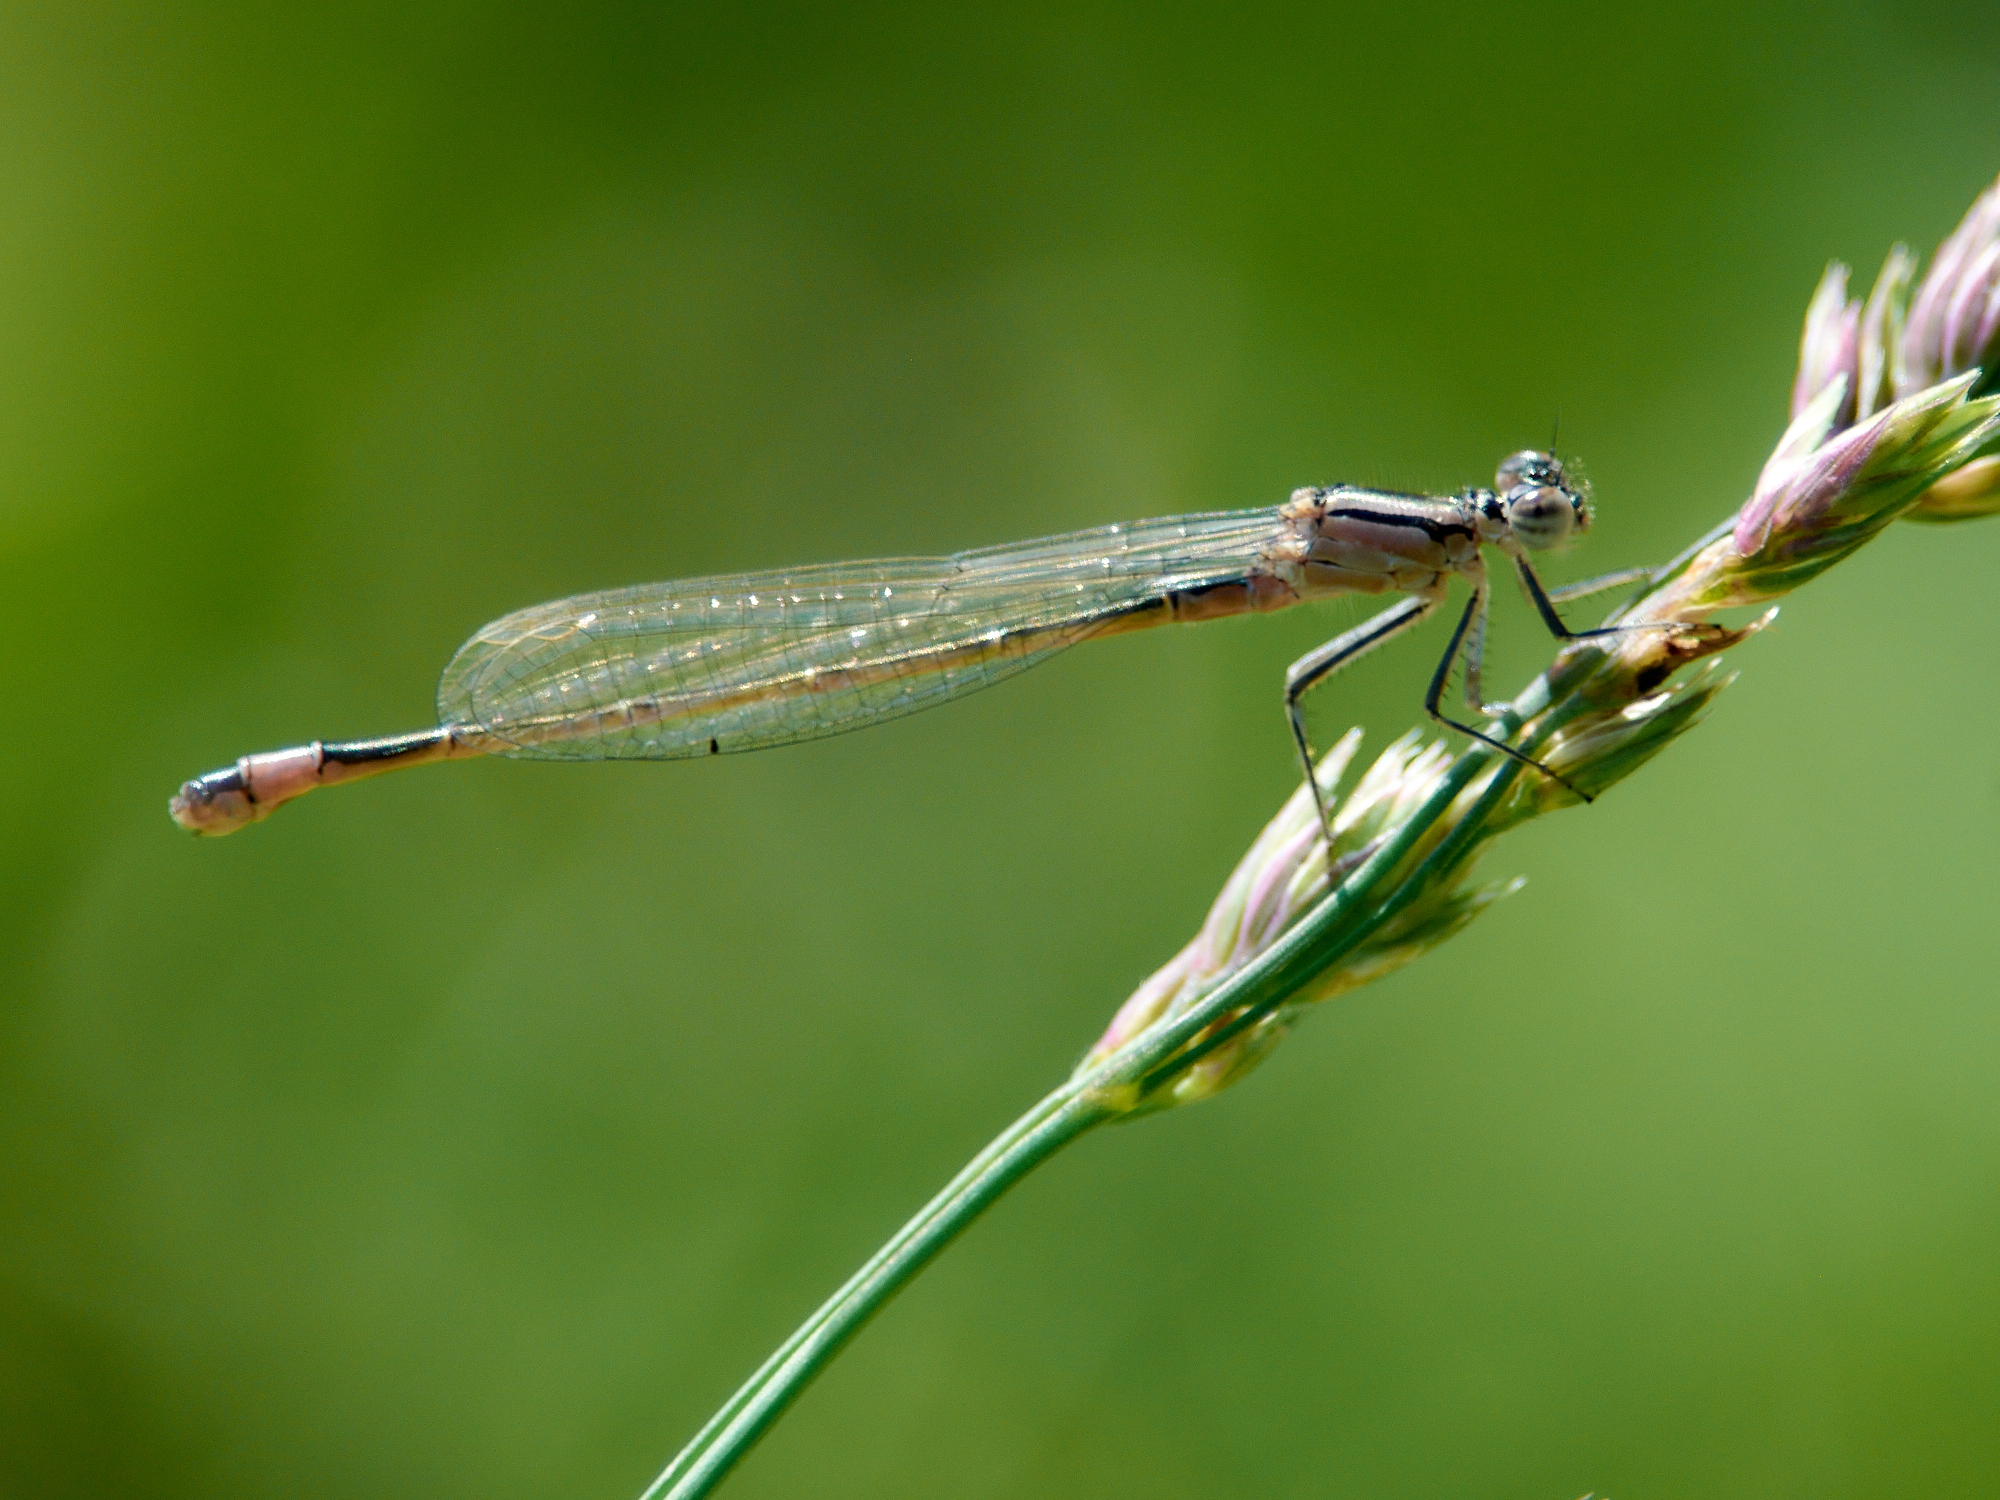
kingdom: Animalia
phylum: Arthropoda
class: Insecta
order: Odonata
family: Coenagrionidae
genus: Ischnura
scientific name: Ischnura elegans
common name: Blue-tailed damselfly
